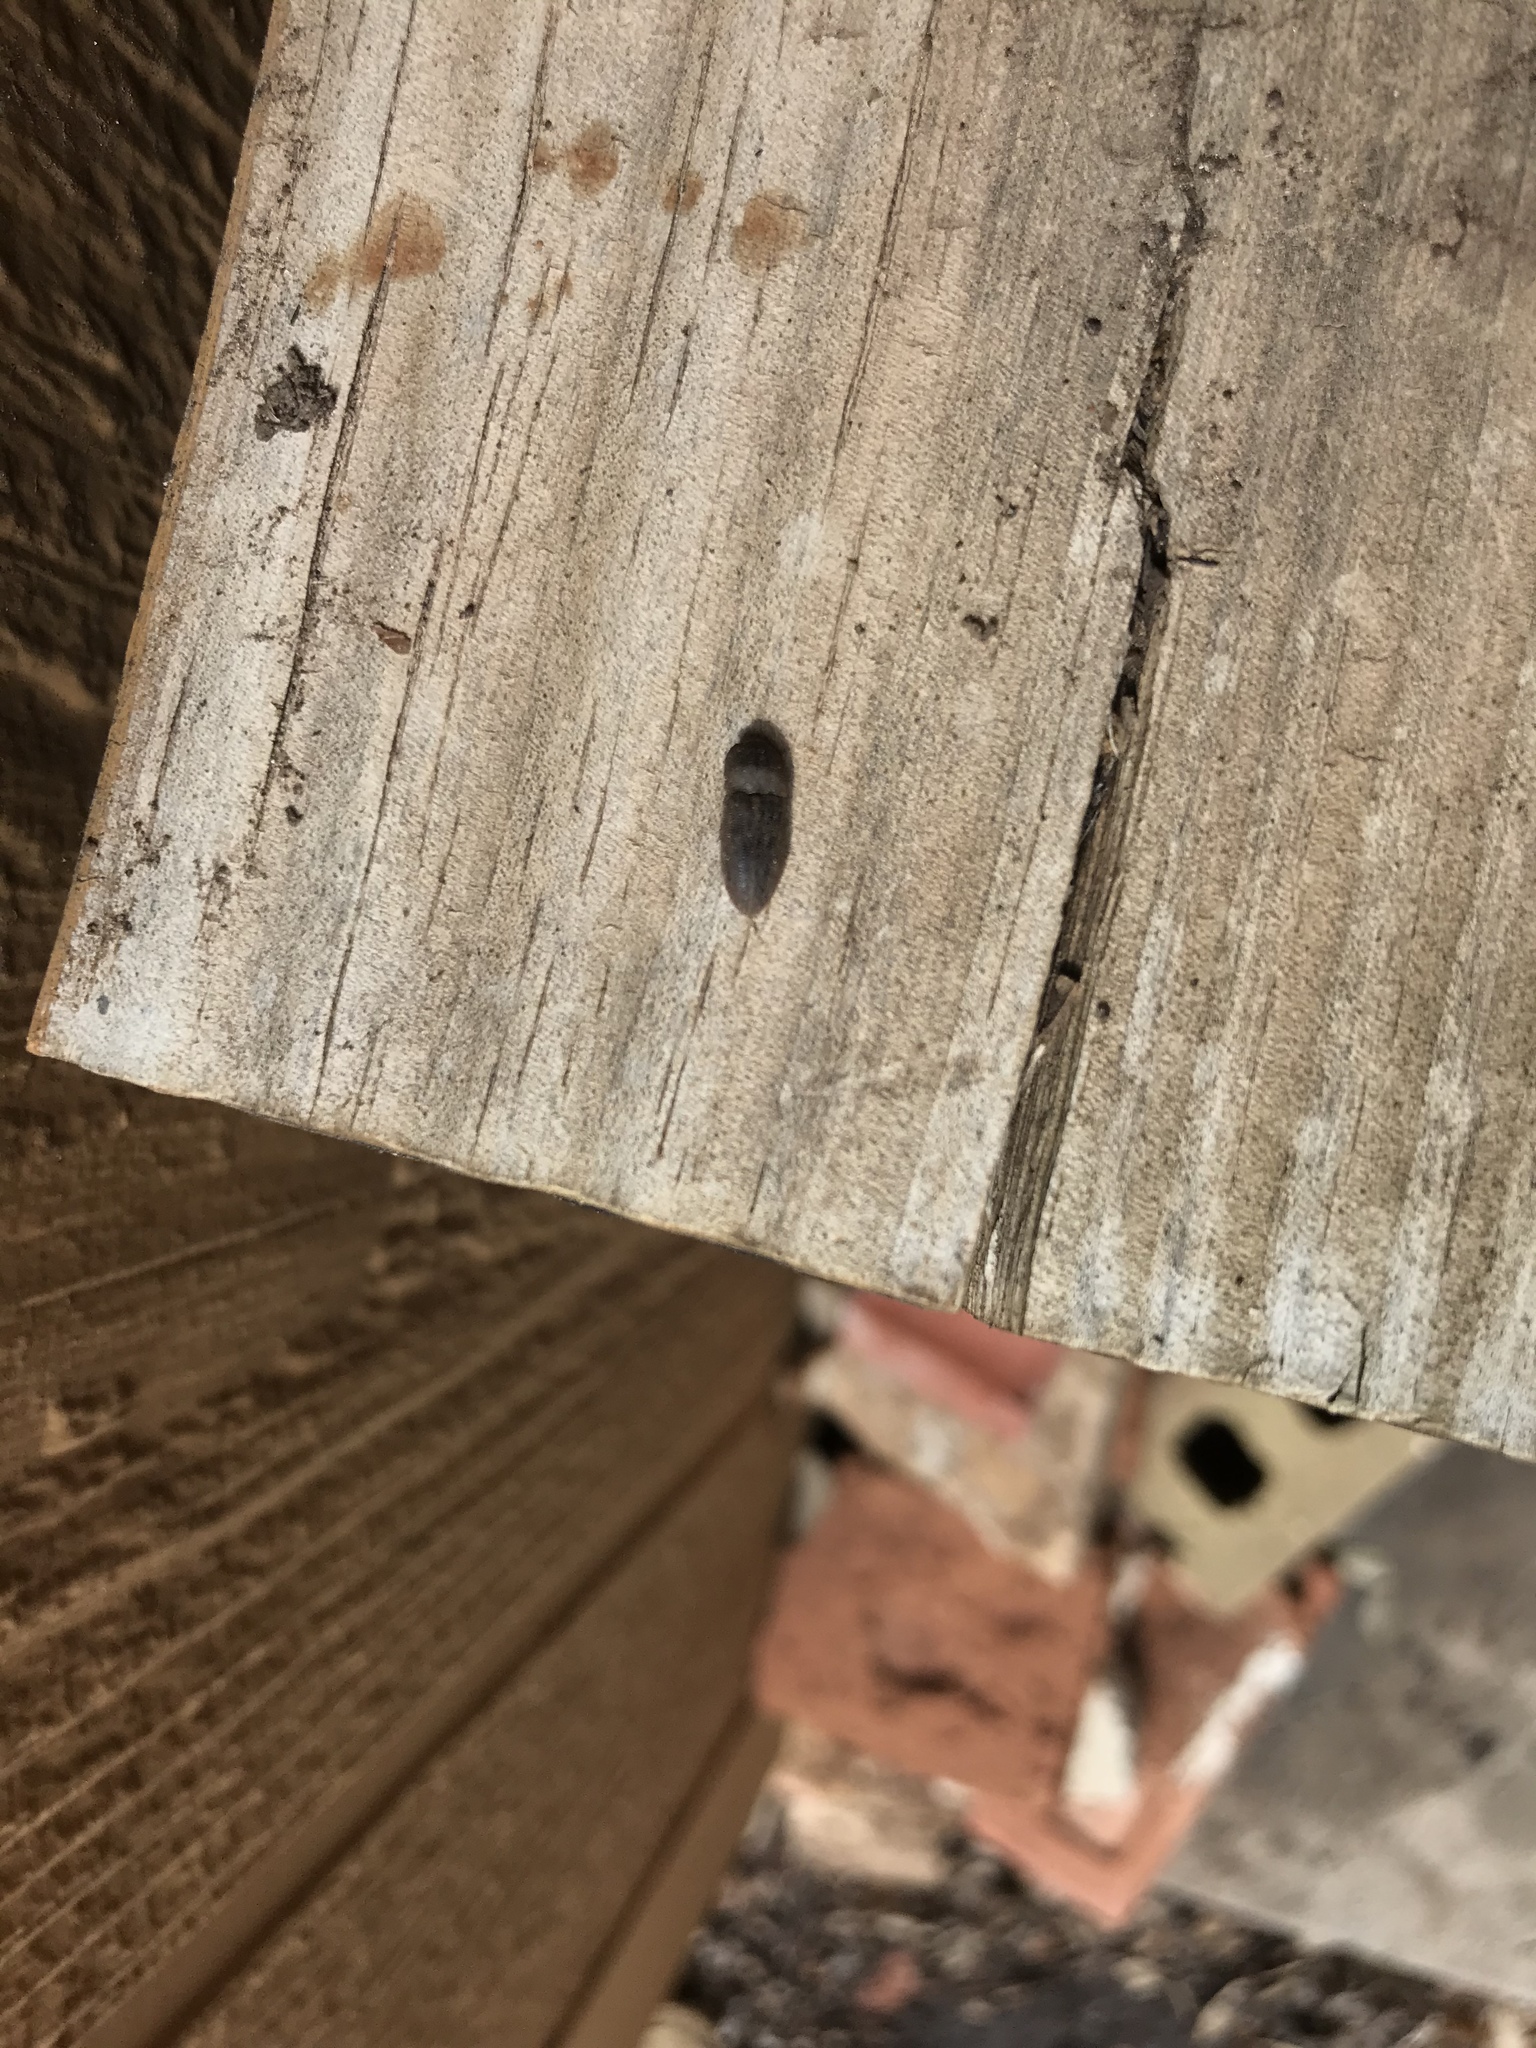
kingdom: Animalia
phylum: Arthropoda
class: Insecta
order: Coleoptera
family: Elateridae
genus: Agrypnus
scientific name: Agrypnus rectangularis
